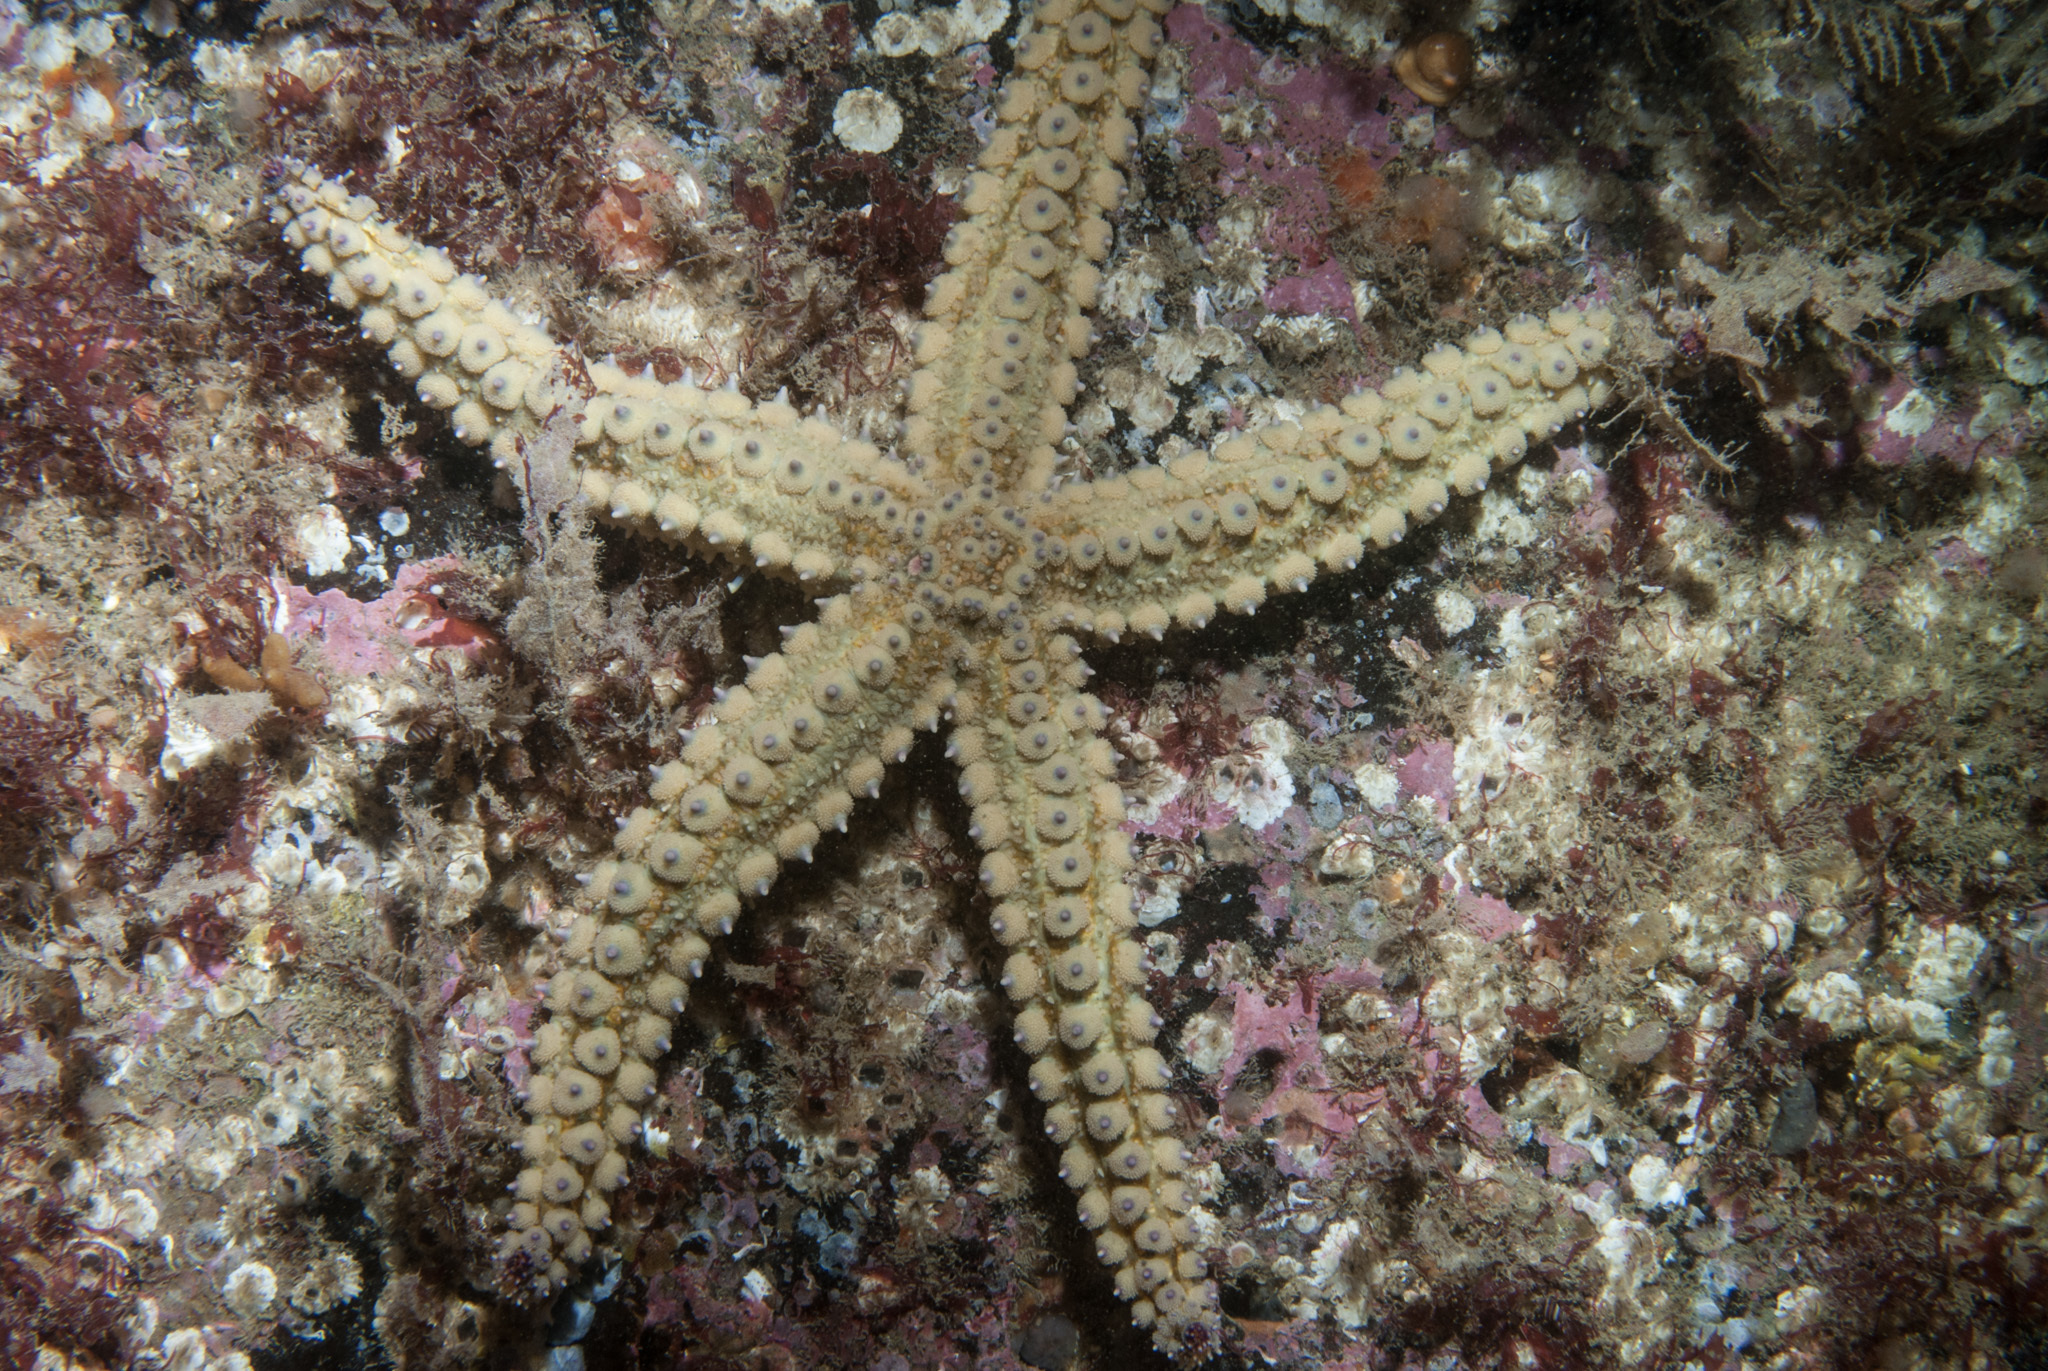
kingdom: Animalia
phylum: Echinodermata
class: Asteroidea
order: Forcipulatida
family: Asteriidae
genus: Marthasterias
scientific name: Marthasterias glacialis
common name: Spiny starfish
